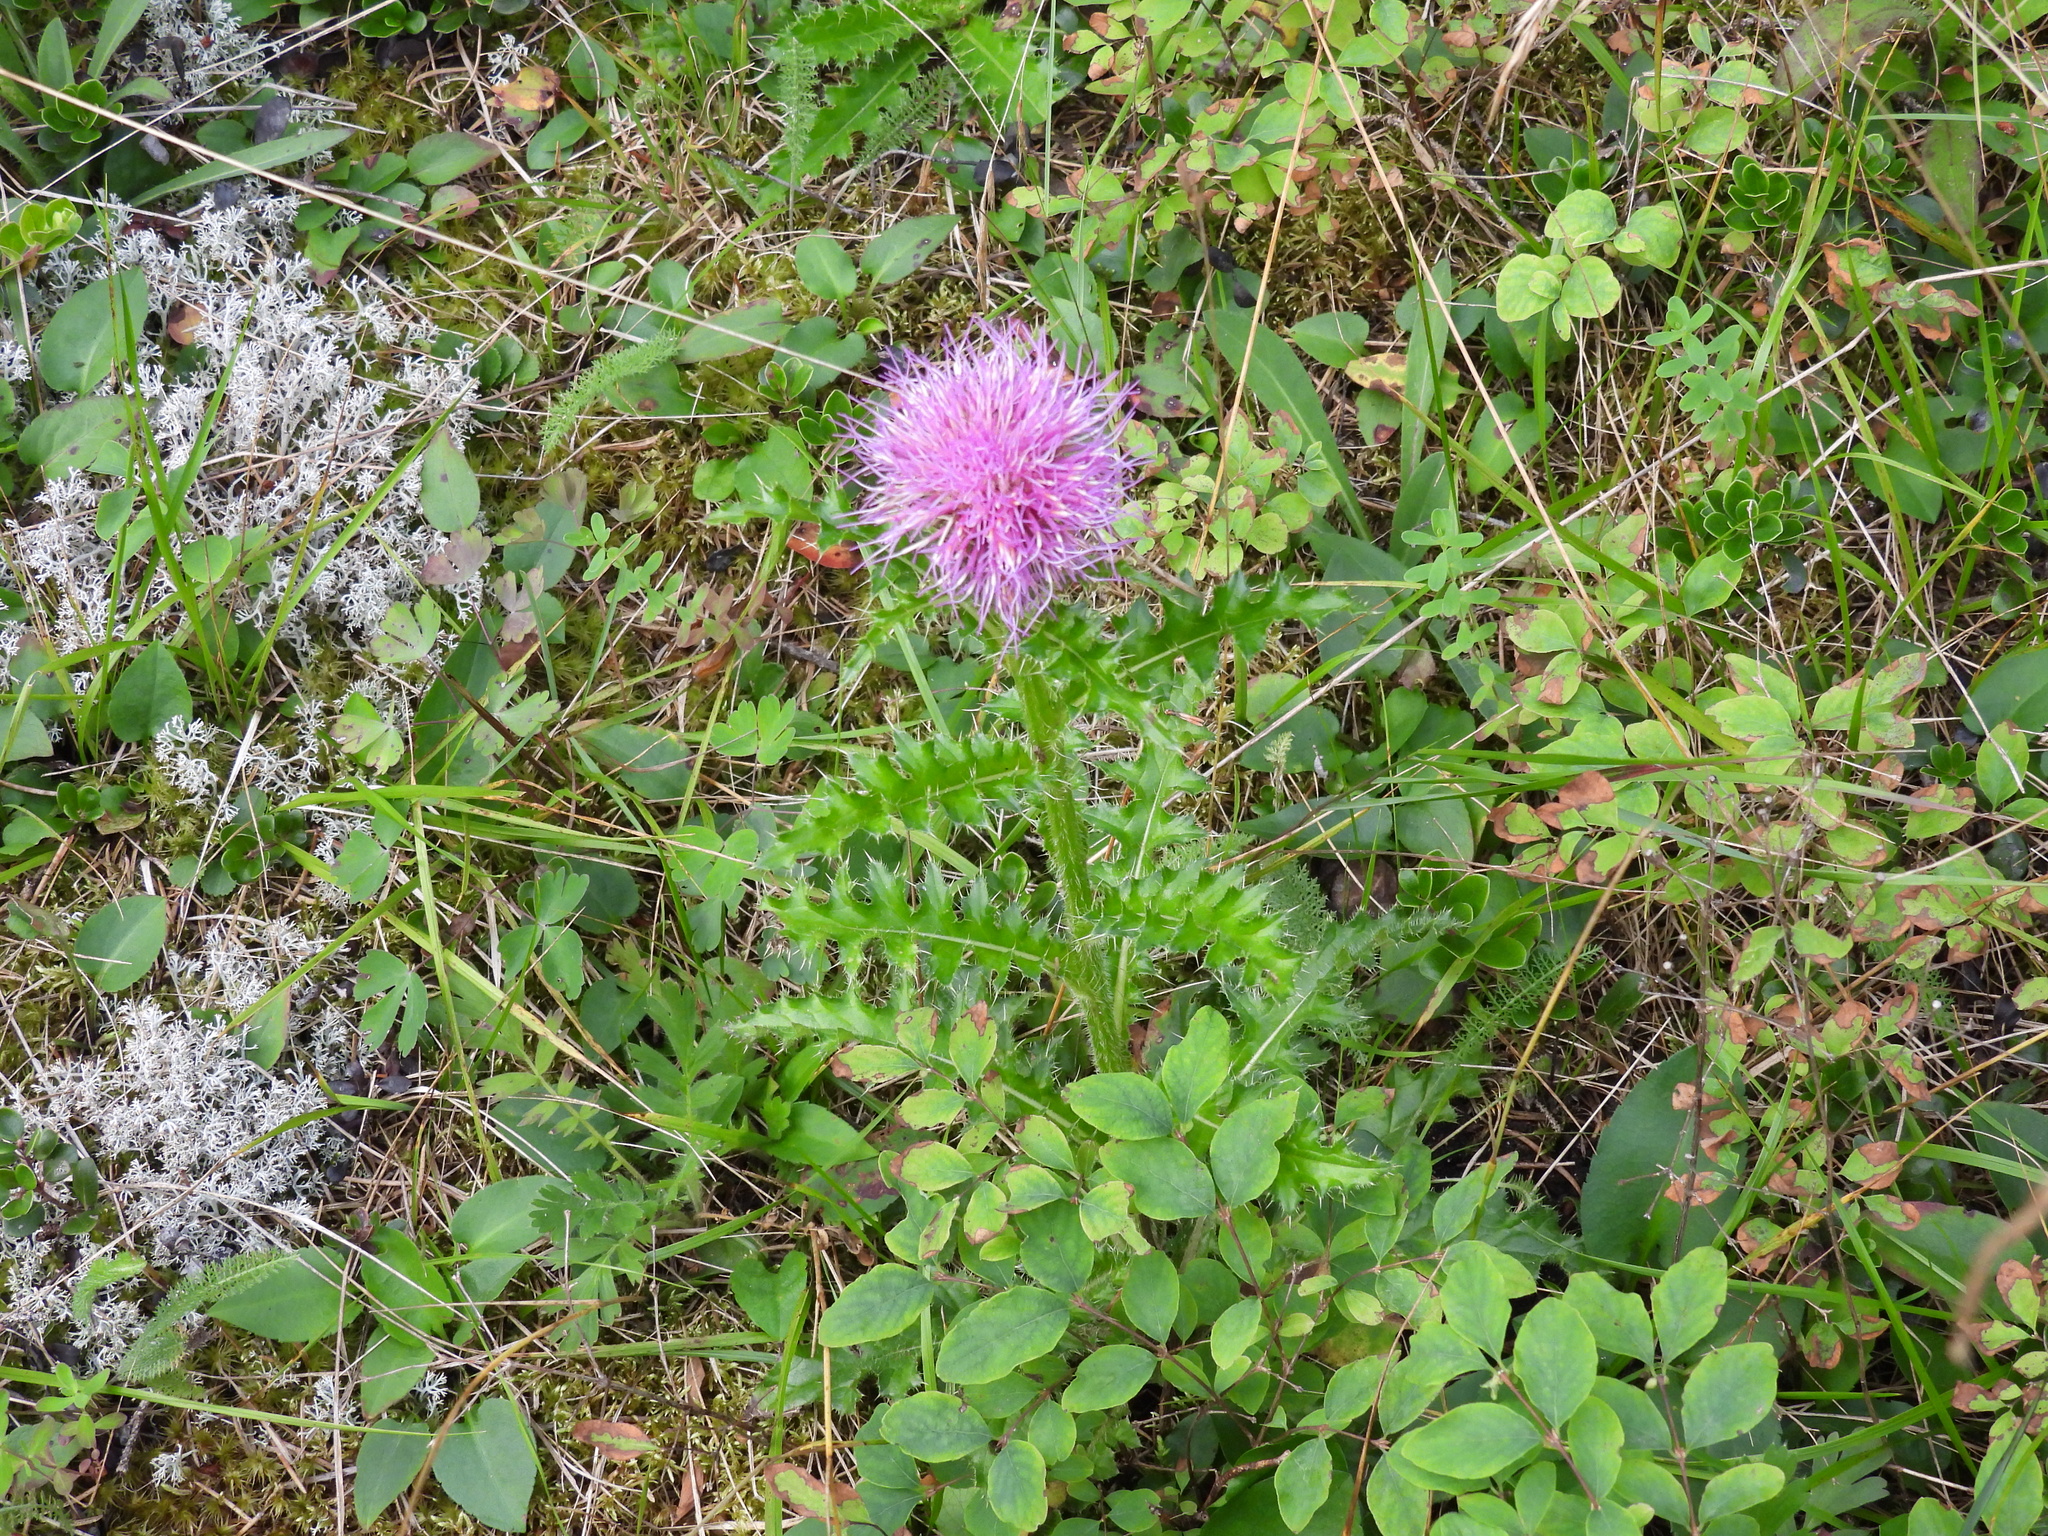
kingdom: Plantae
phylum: Tracheophyta
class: Magnoliopsida
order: Asterales
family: Asteraceae
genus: Cirsium
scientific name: Cirsium pumilum
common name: Pasture thistle
